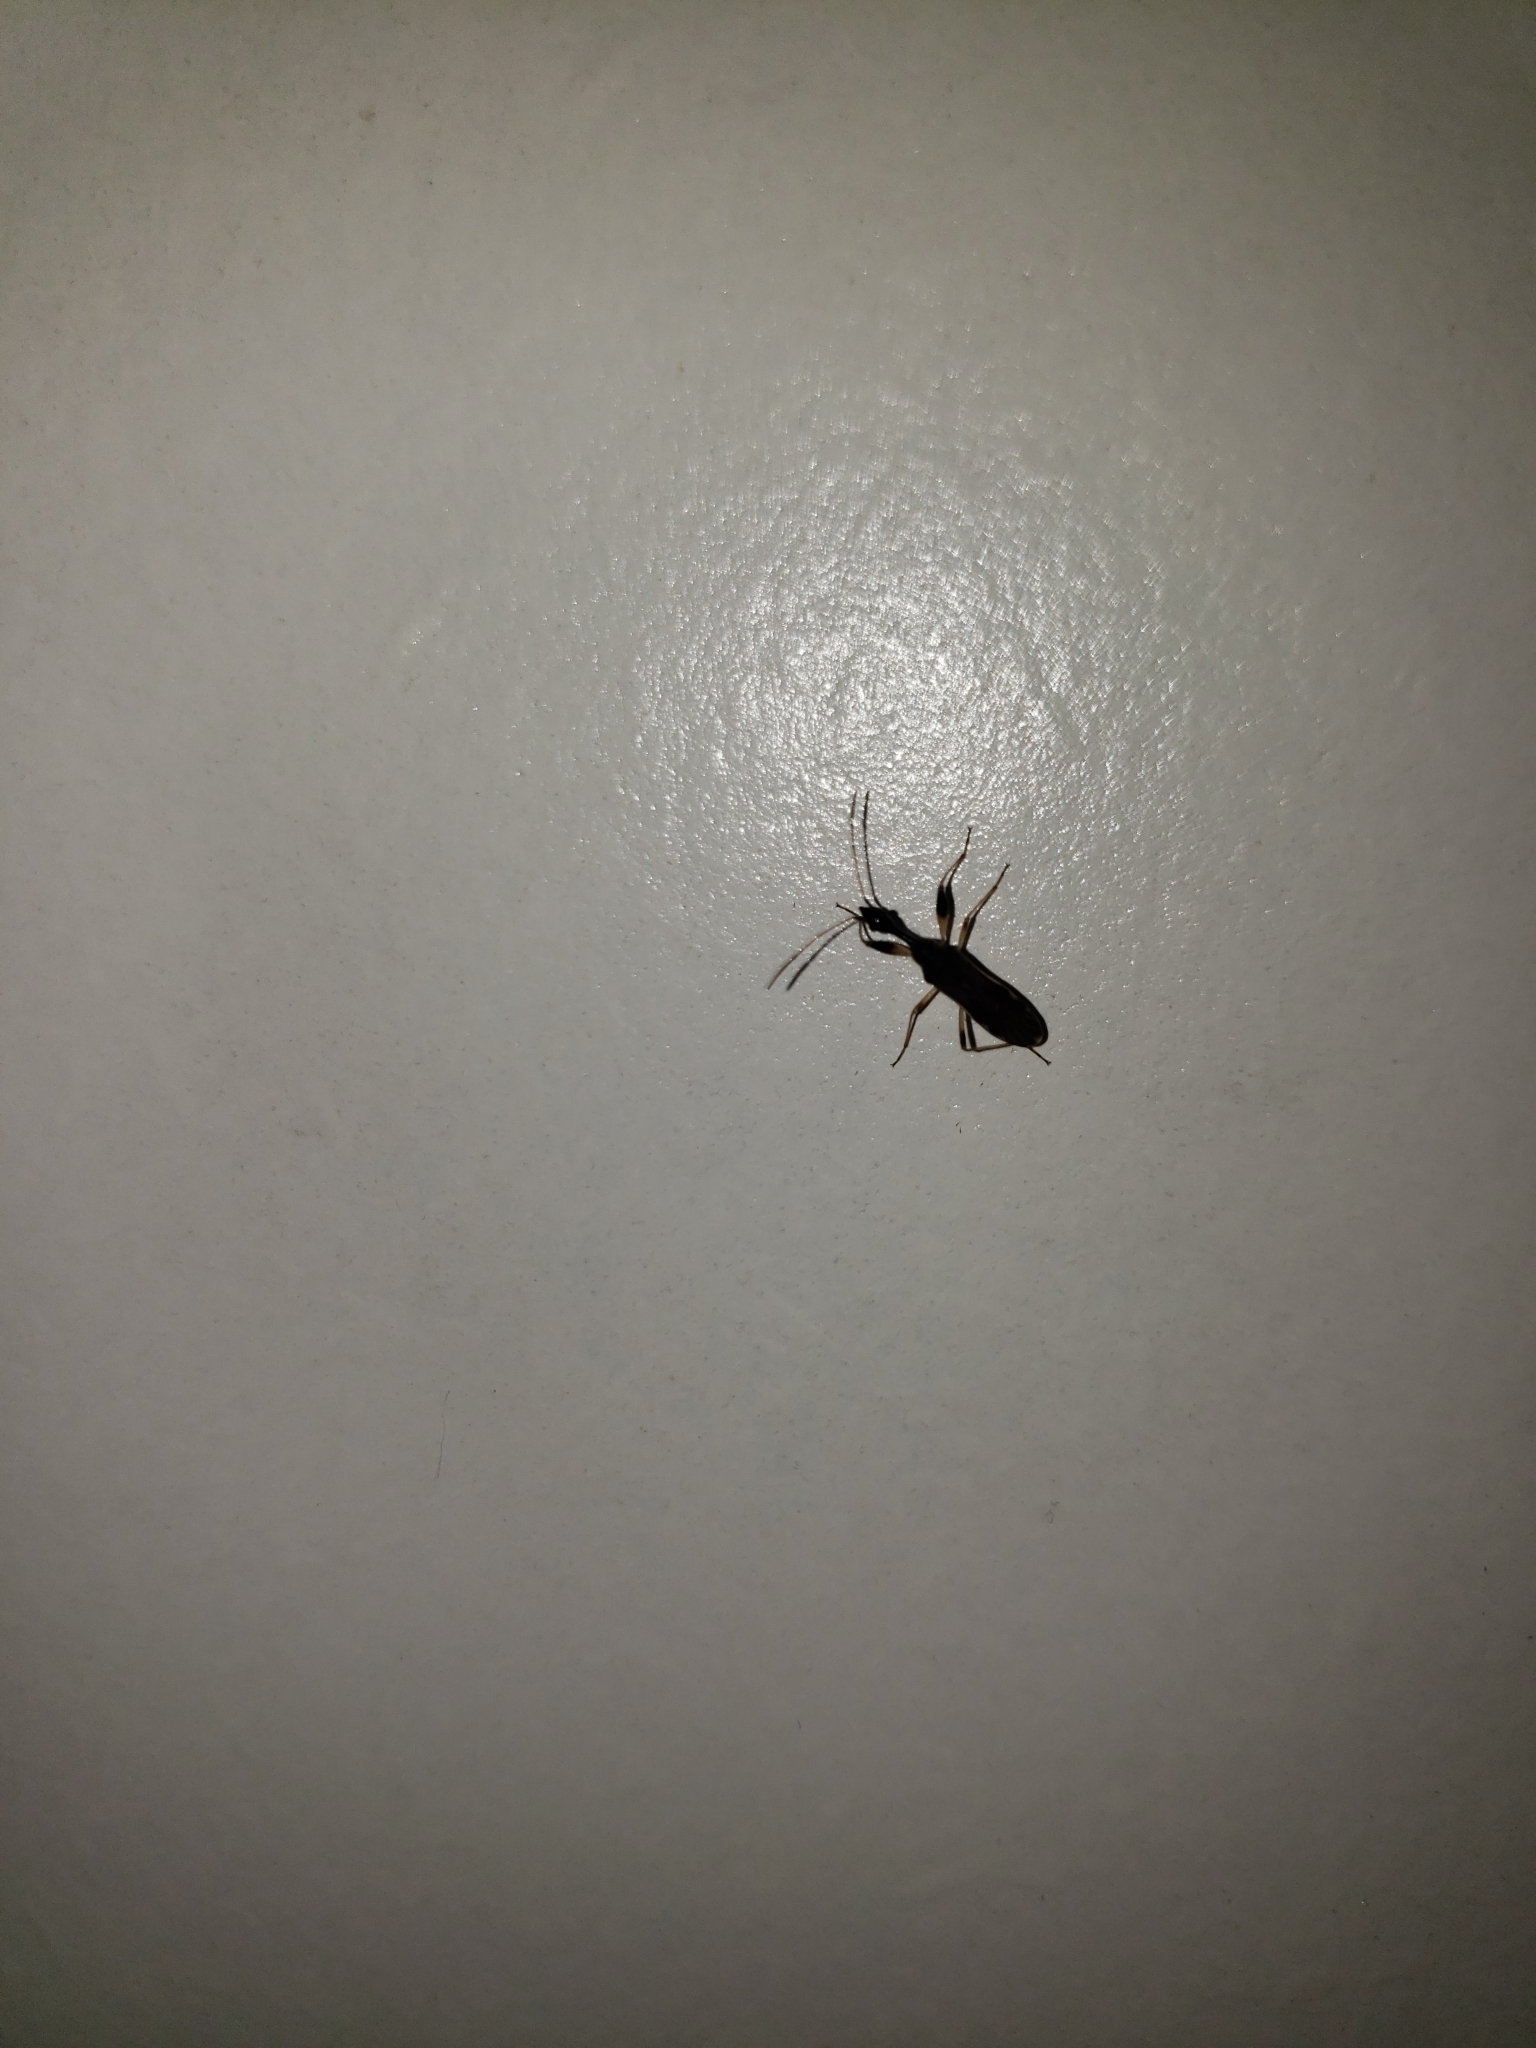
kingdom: Animalia
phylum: Arthropoda
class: Insecta
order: Hemiptera
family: Rhyparochromidae
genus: Myodocha
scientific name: Myodocha serripes
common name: Long-necked seed bug
